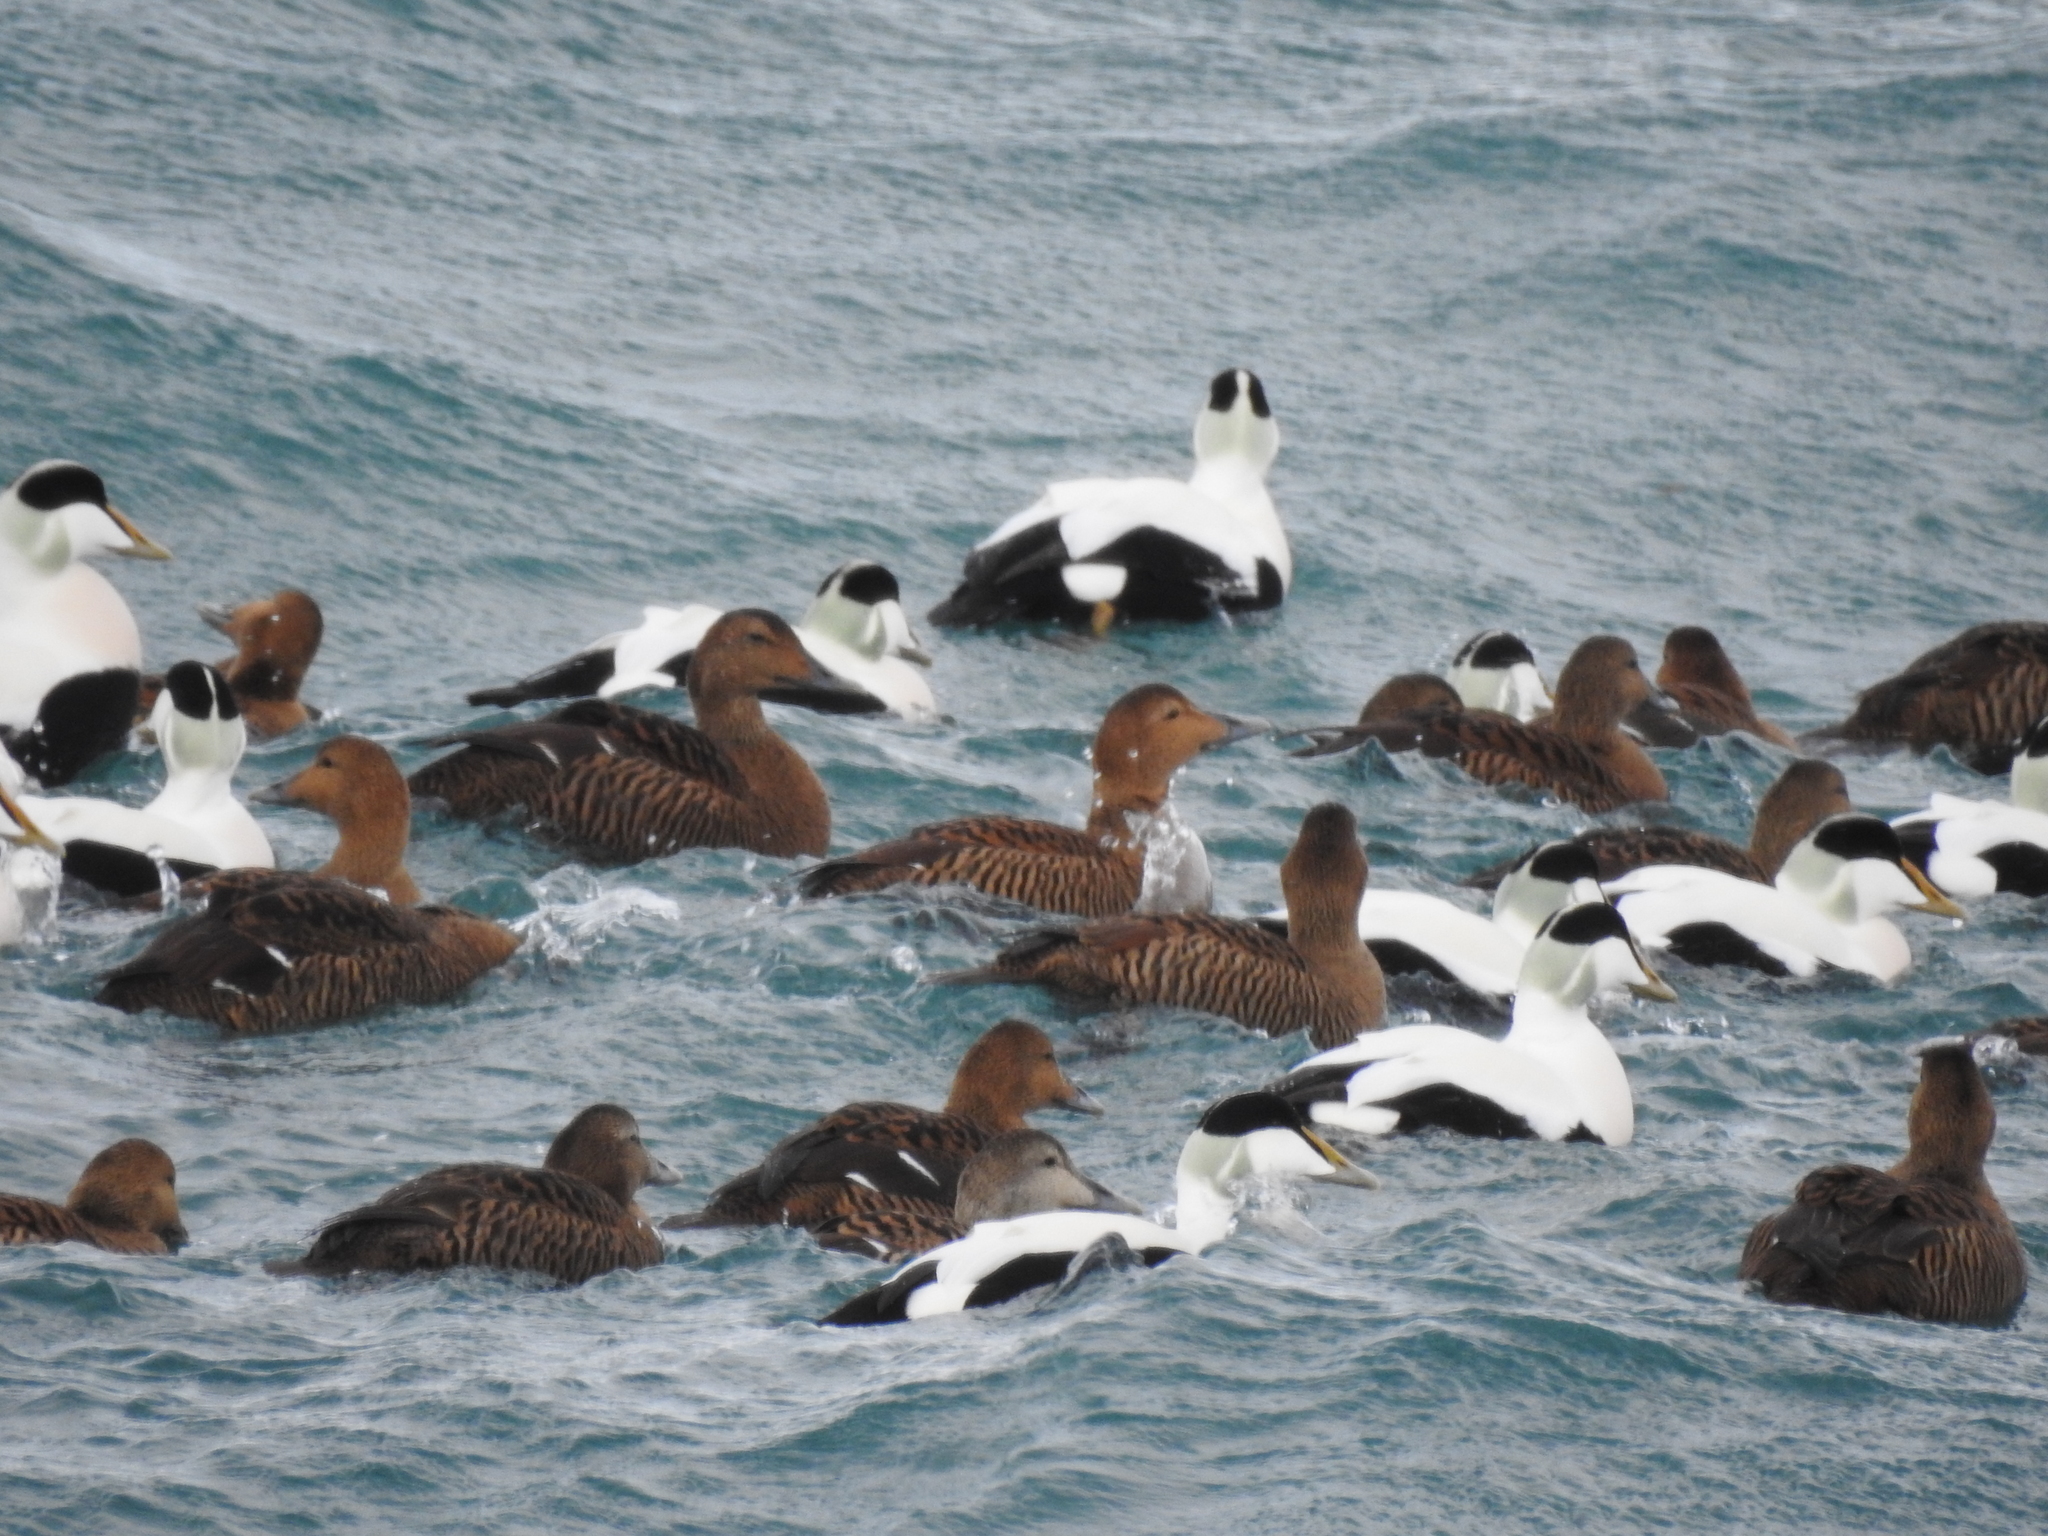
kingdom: Animalia
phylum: Chordata
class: Aves
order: Anseriformes
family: Anatidae
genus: Somateria
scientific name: Somateria mollissima
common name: Common eider
